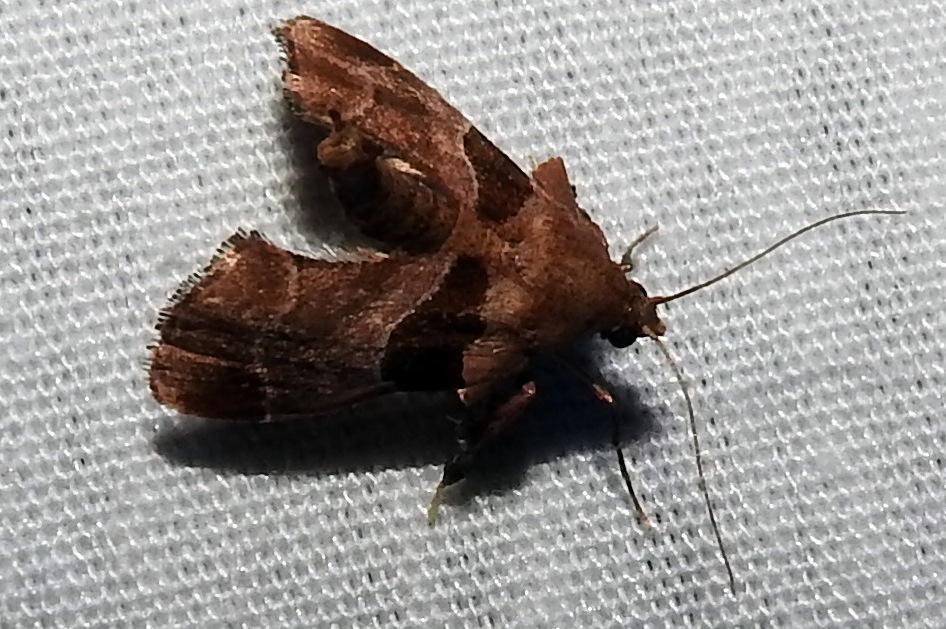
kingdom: Animalia
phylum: Arthropoda
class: Insecta
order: Lepidoptera
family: Pyralidae
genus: Tosale
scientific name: Tosale oviplagalis
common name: Dimorphic tosale moth
